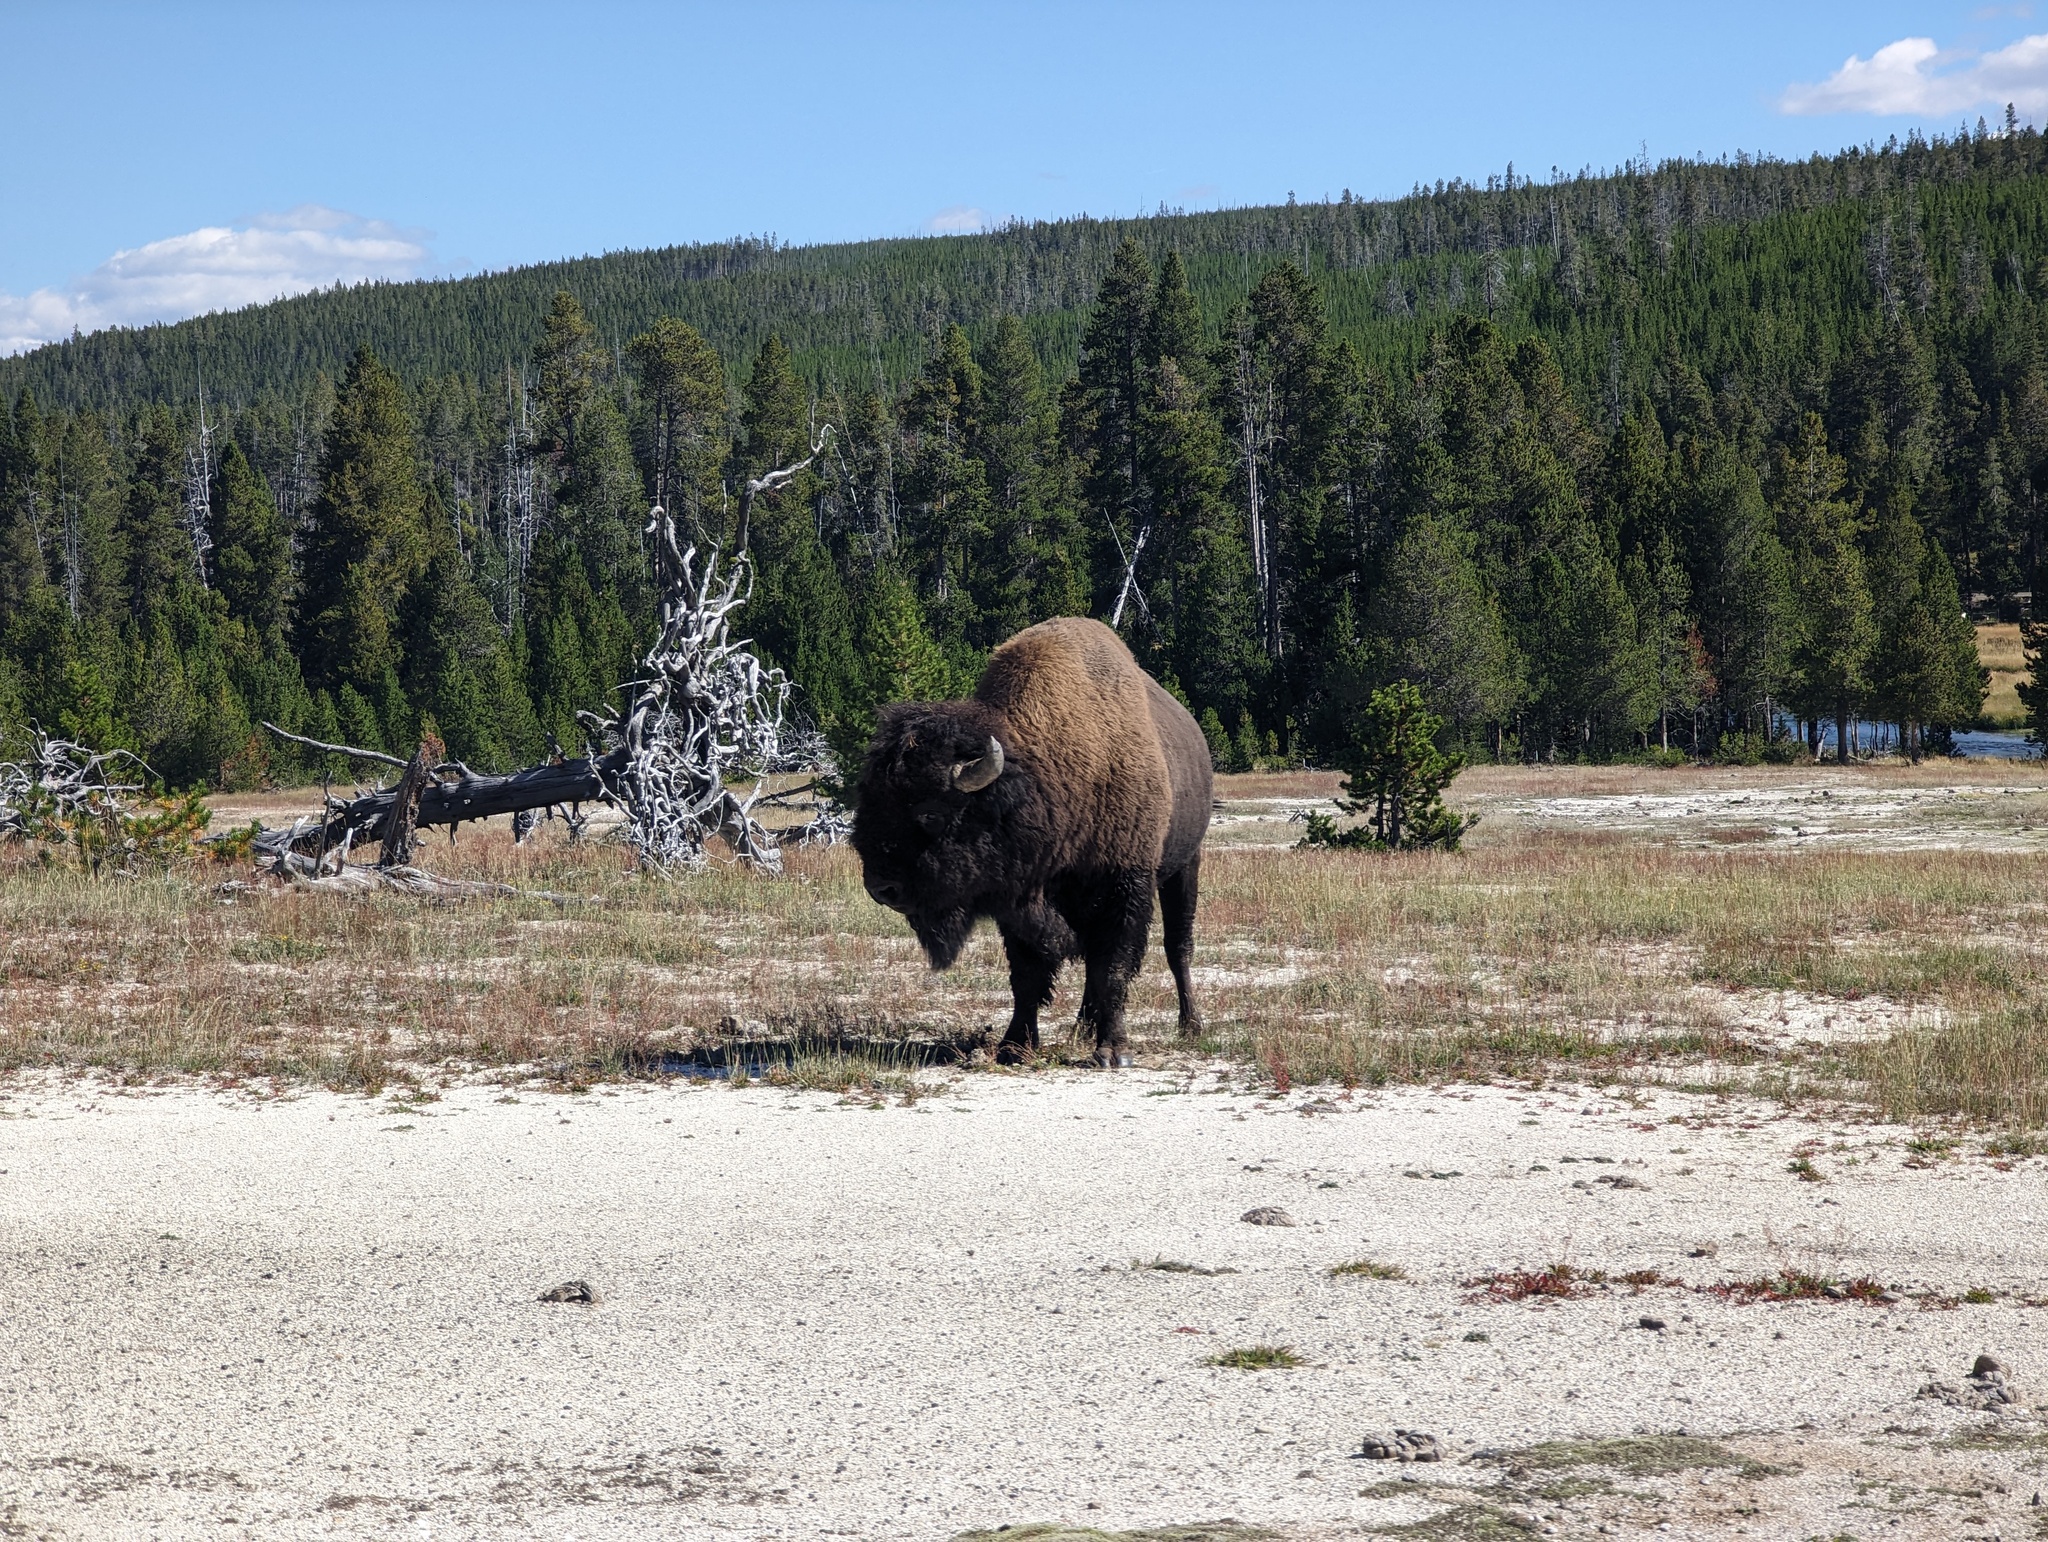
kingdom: Animalia
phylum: Chordata
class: Mammalia
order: Artiodactyla
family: Bovidae
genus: Bison
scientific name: Bison bison
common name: American bison
